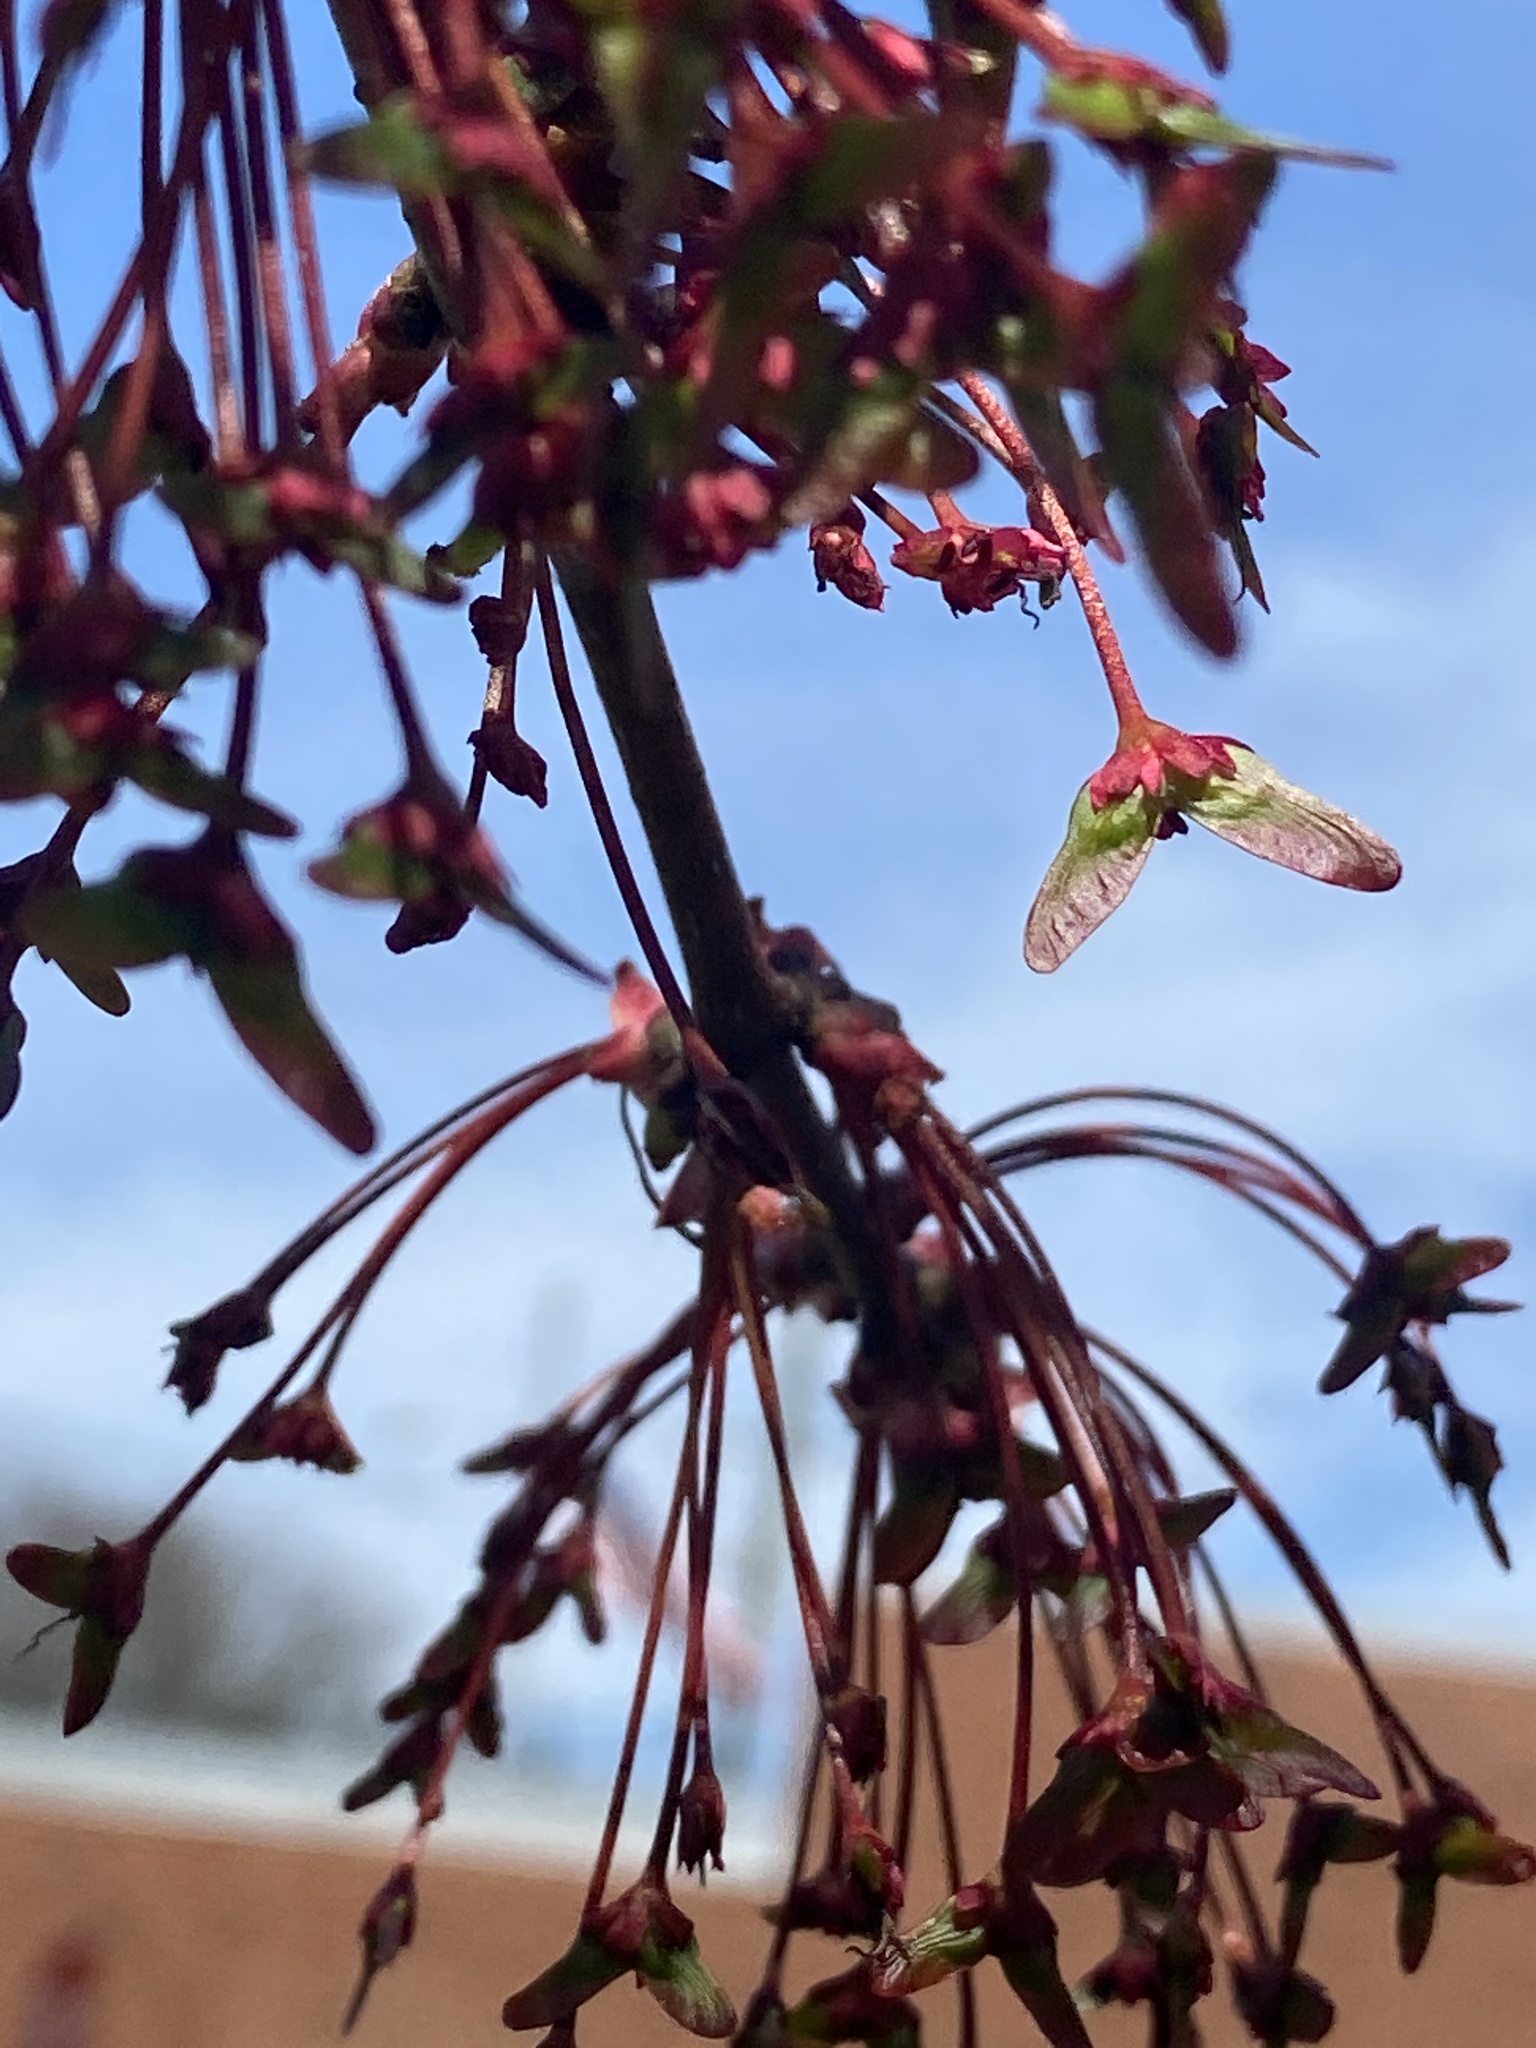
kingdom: Plantae
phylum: Tracheophyta
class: Magnoliopsida
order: Sapindales
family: Sapindaceae
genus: Acer
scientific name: Acer rubrum
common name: Red maple
